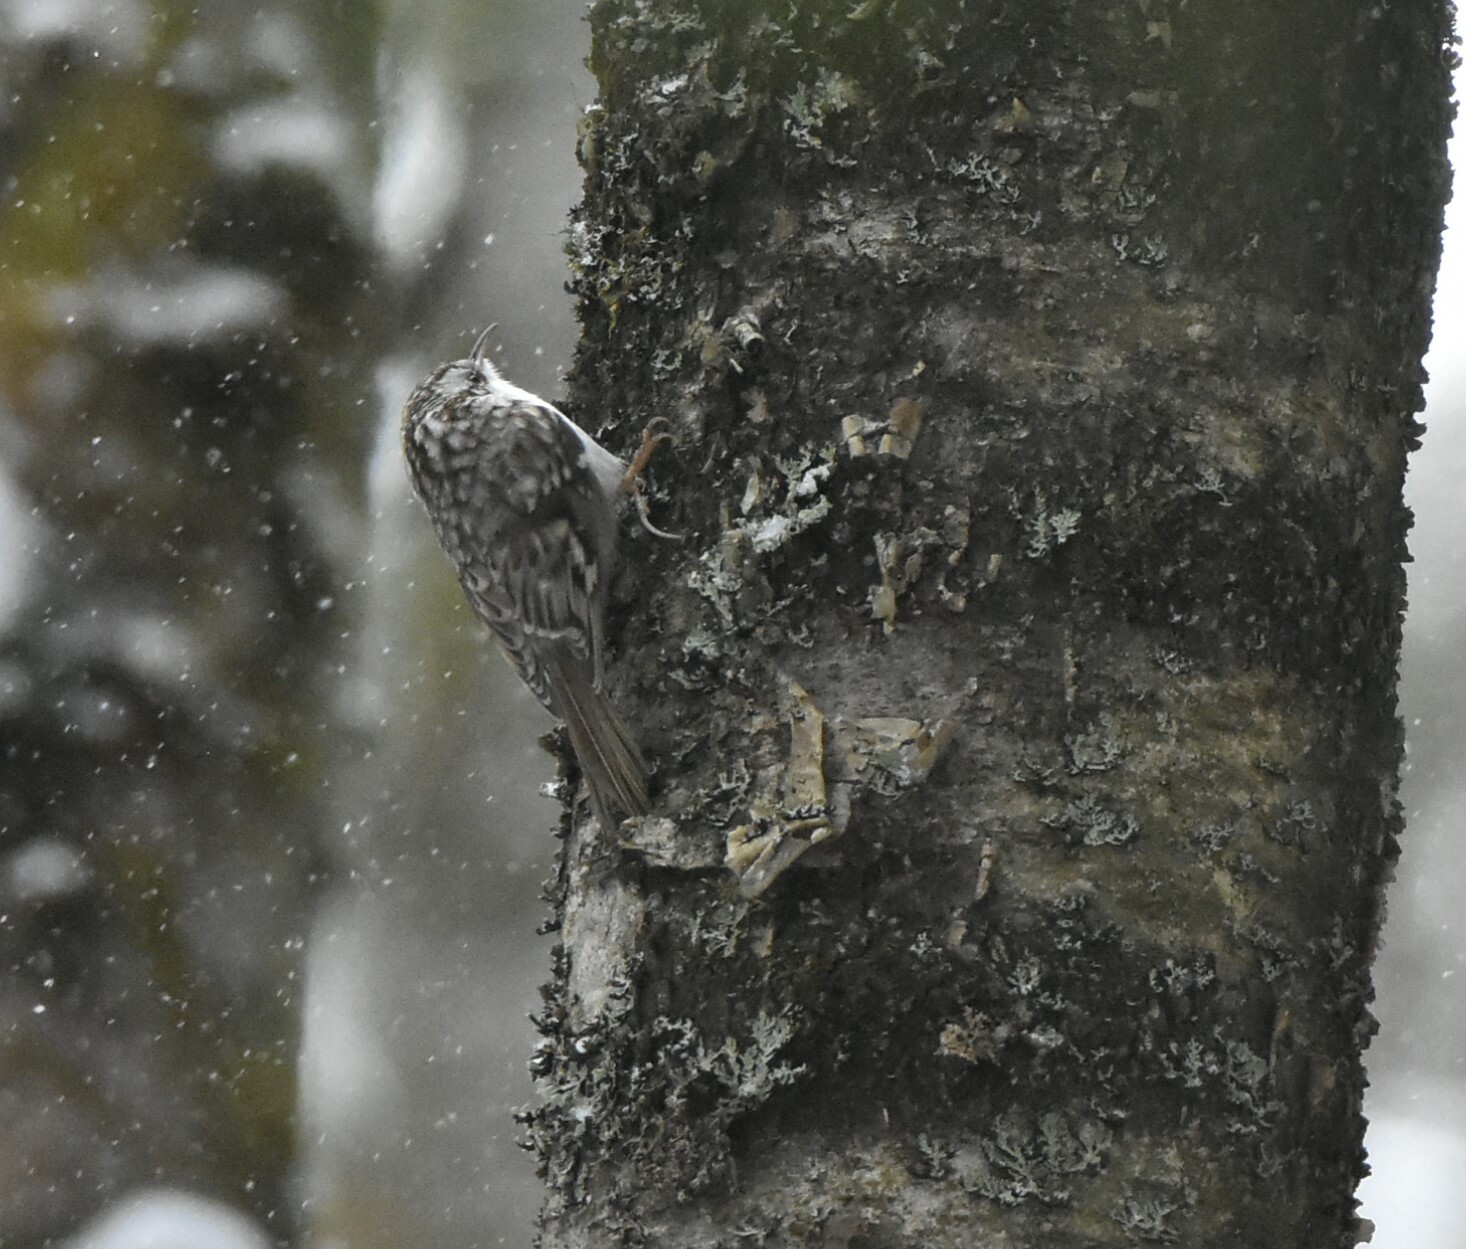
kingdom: Animalia
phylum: Chordata
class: Aves
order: Passeriformes
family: Certhiidae
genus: Certhia
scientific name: Certhia familiaris
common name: Eurasian treecreeper
